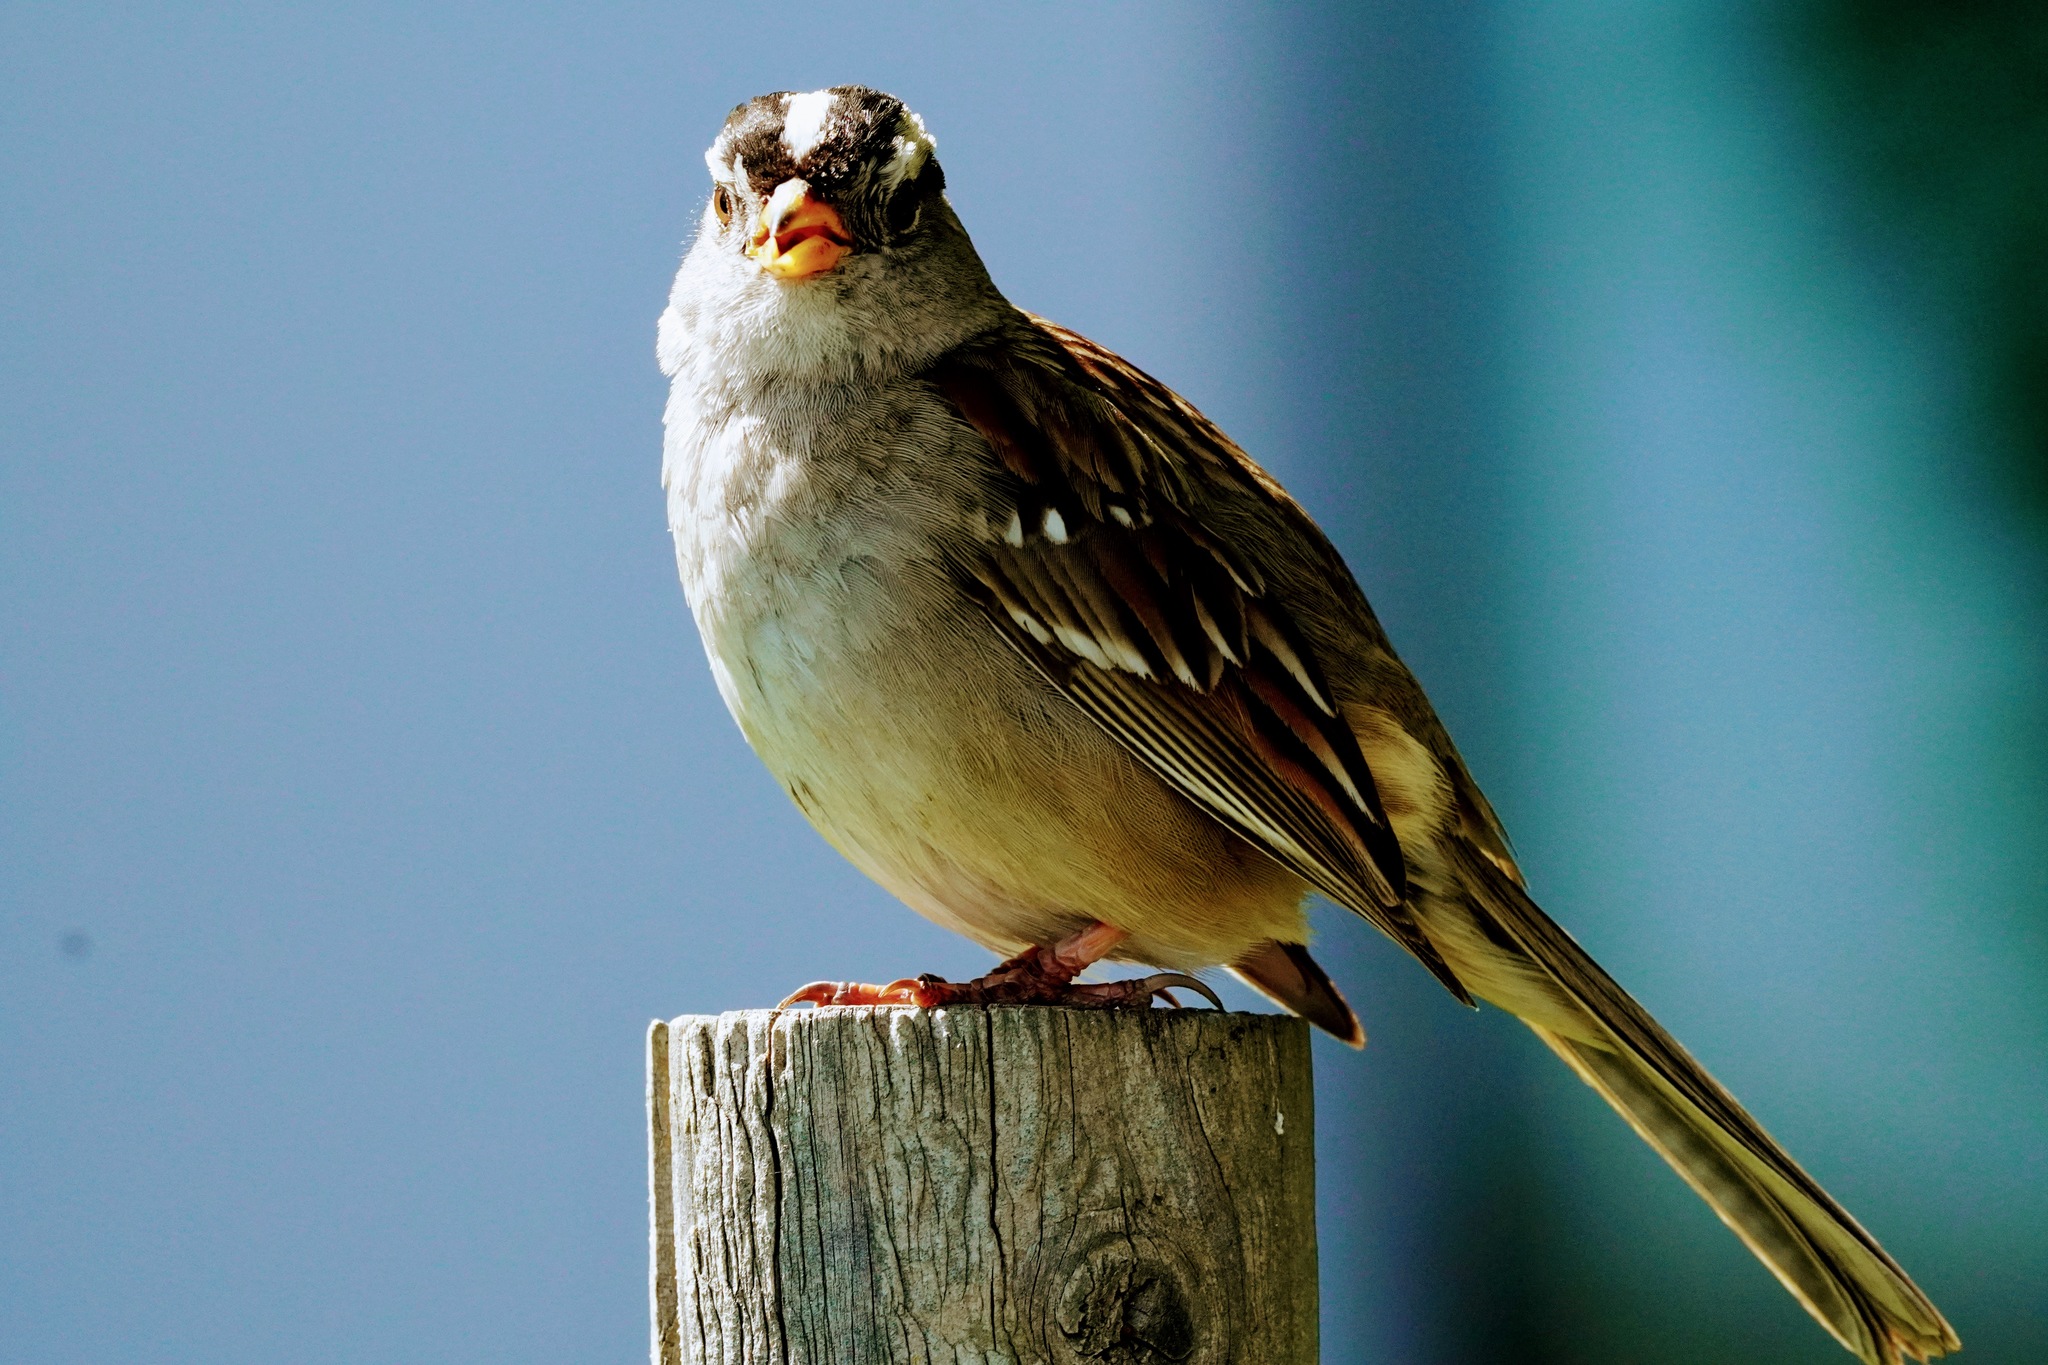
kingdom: Animalia
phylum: Chordata
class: Aves
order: Passeriformes
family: Passerellidae
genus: Zonotrichia
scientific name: Zonotrichia leucophrys
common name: White-crowned sparrow
